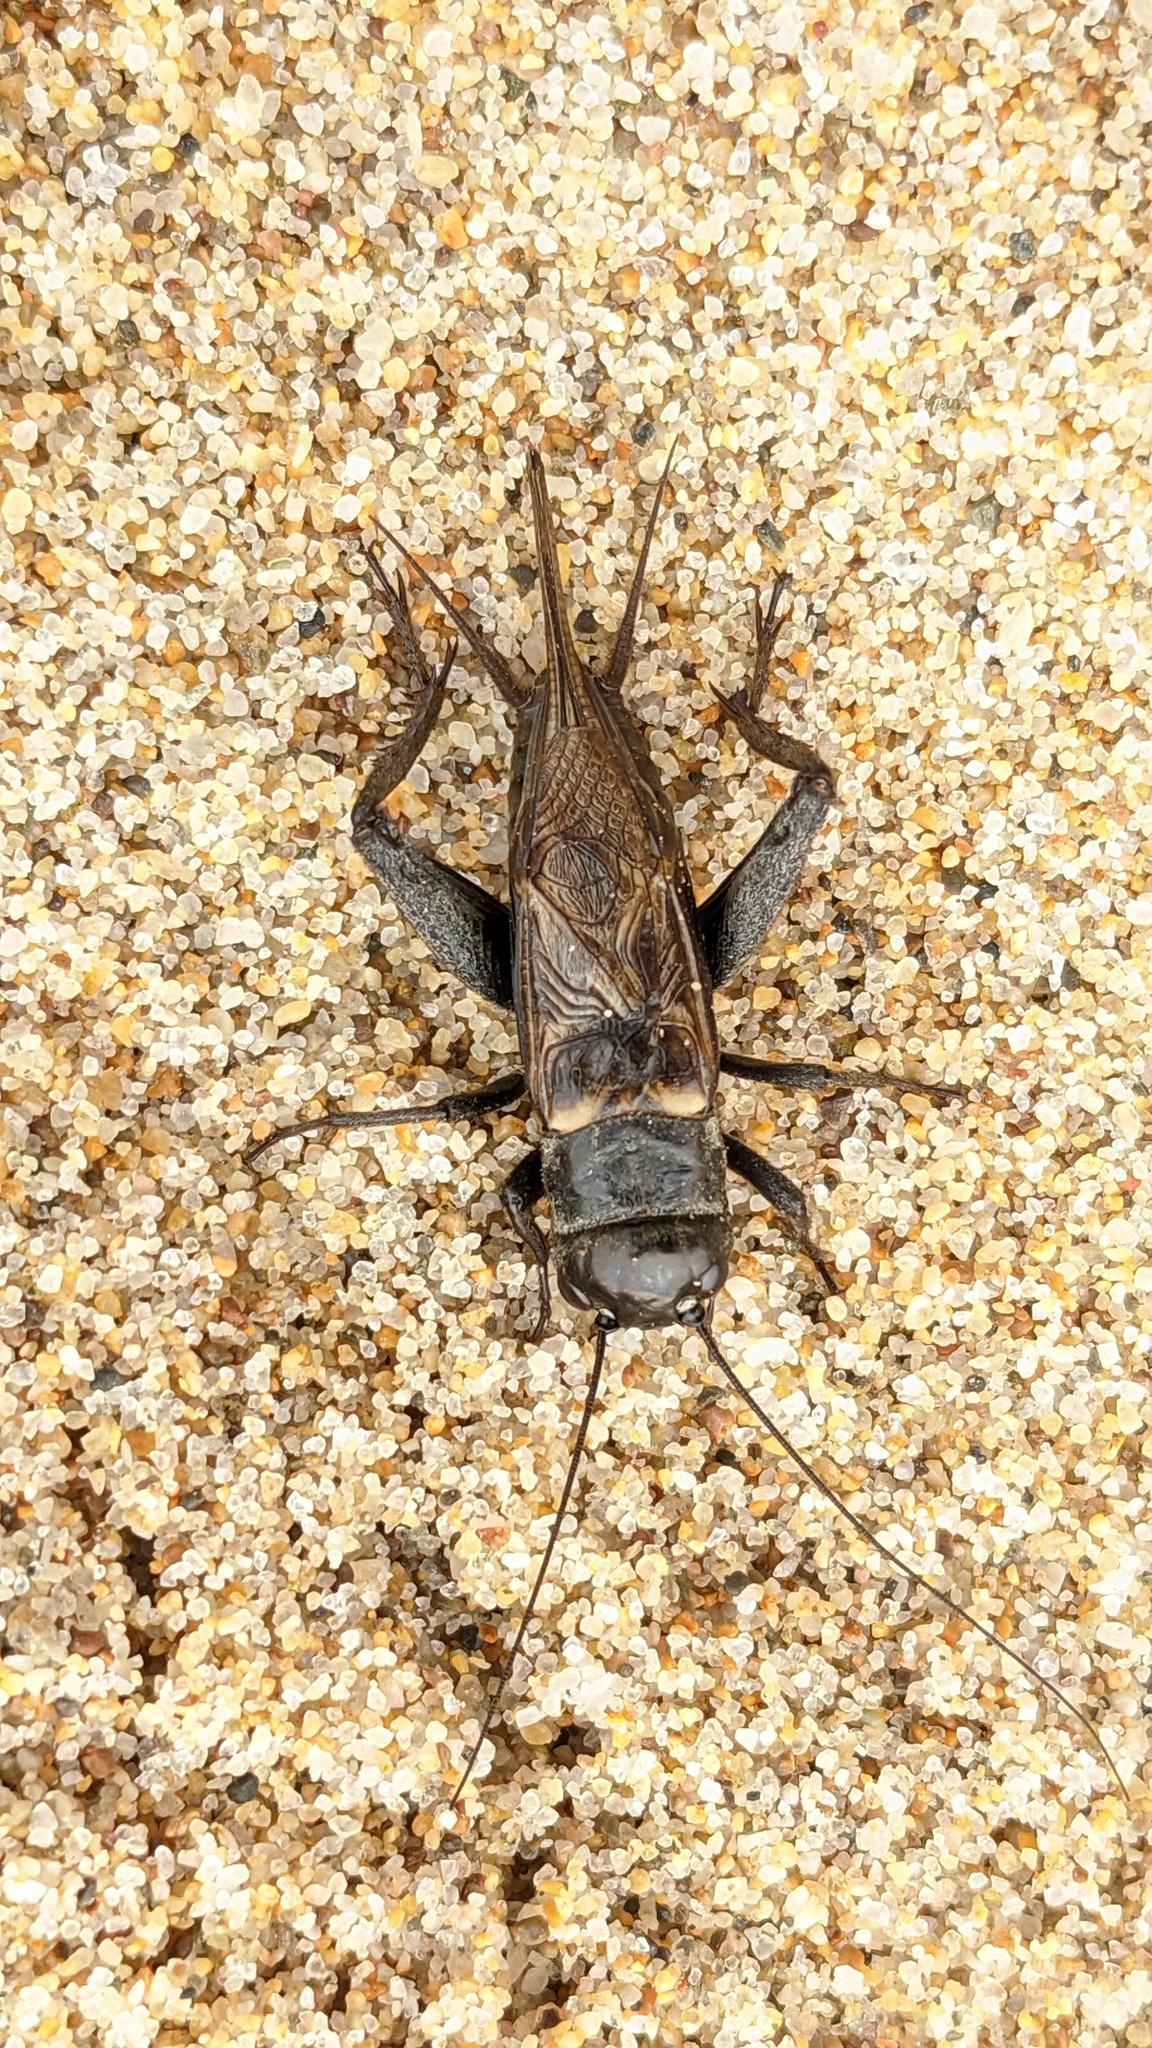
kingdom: Animalia
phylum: Arthropoda
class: Insecta
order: Orthoptera
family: Gryllidae
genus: Gryllus
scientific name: Gryllus
